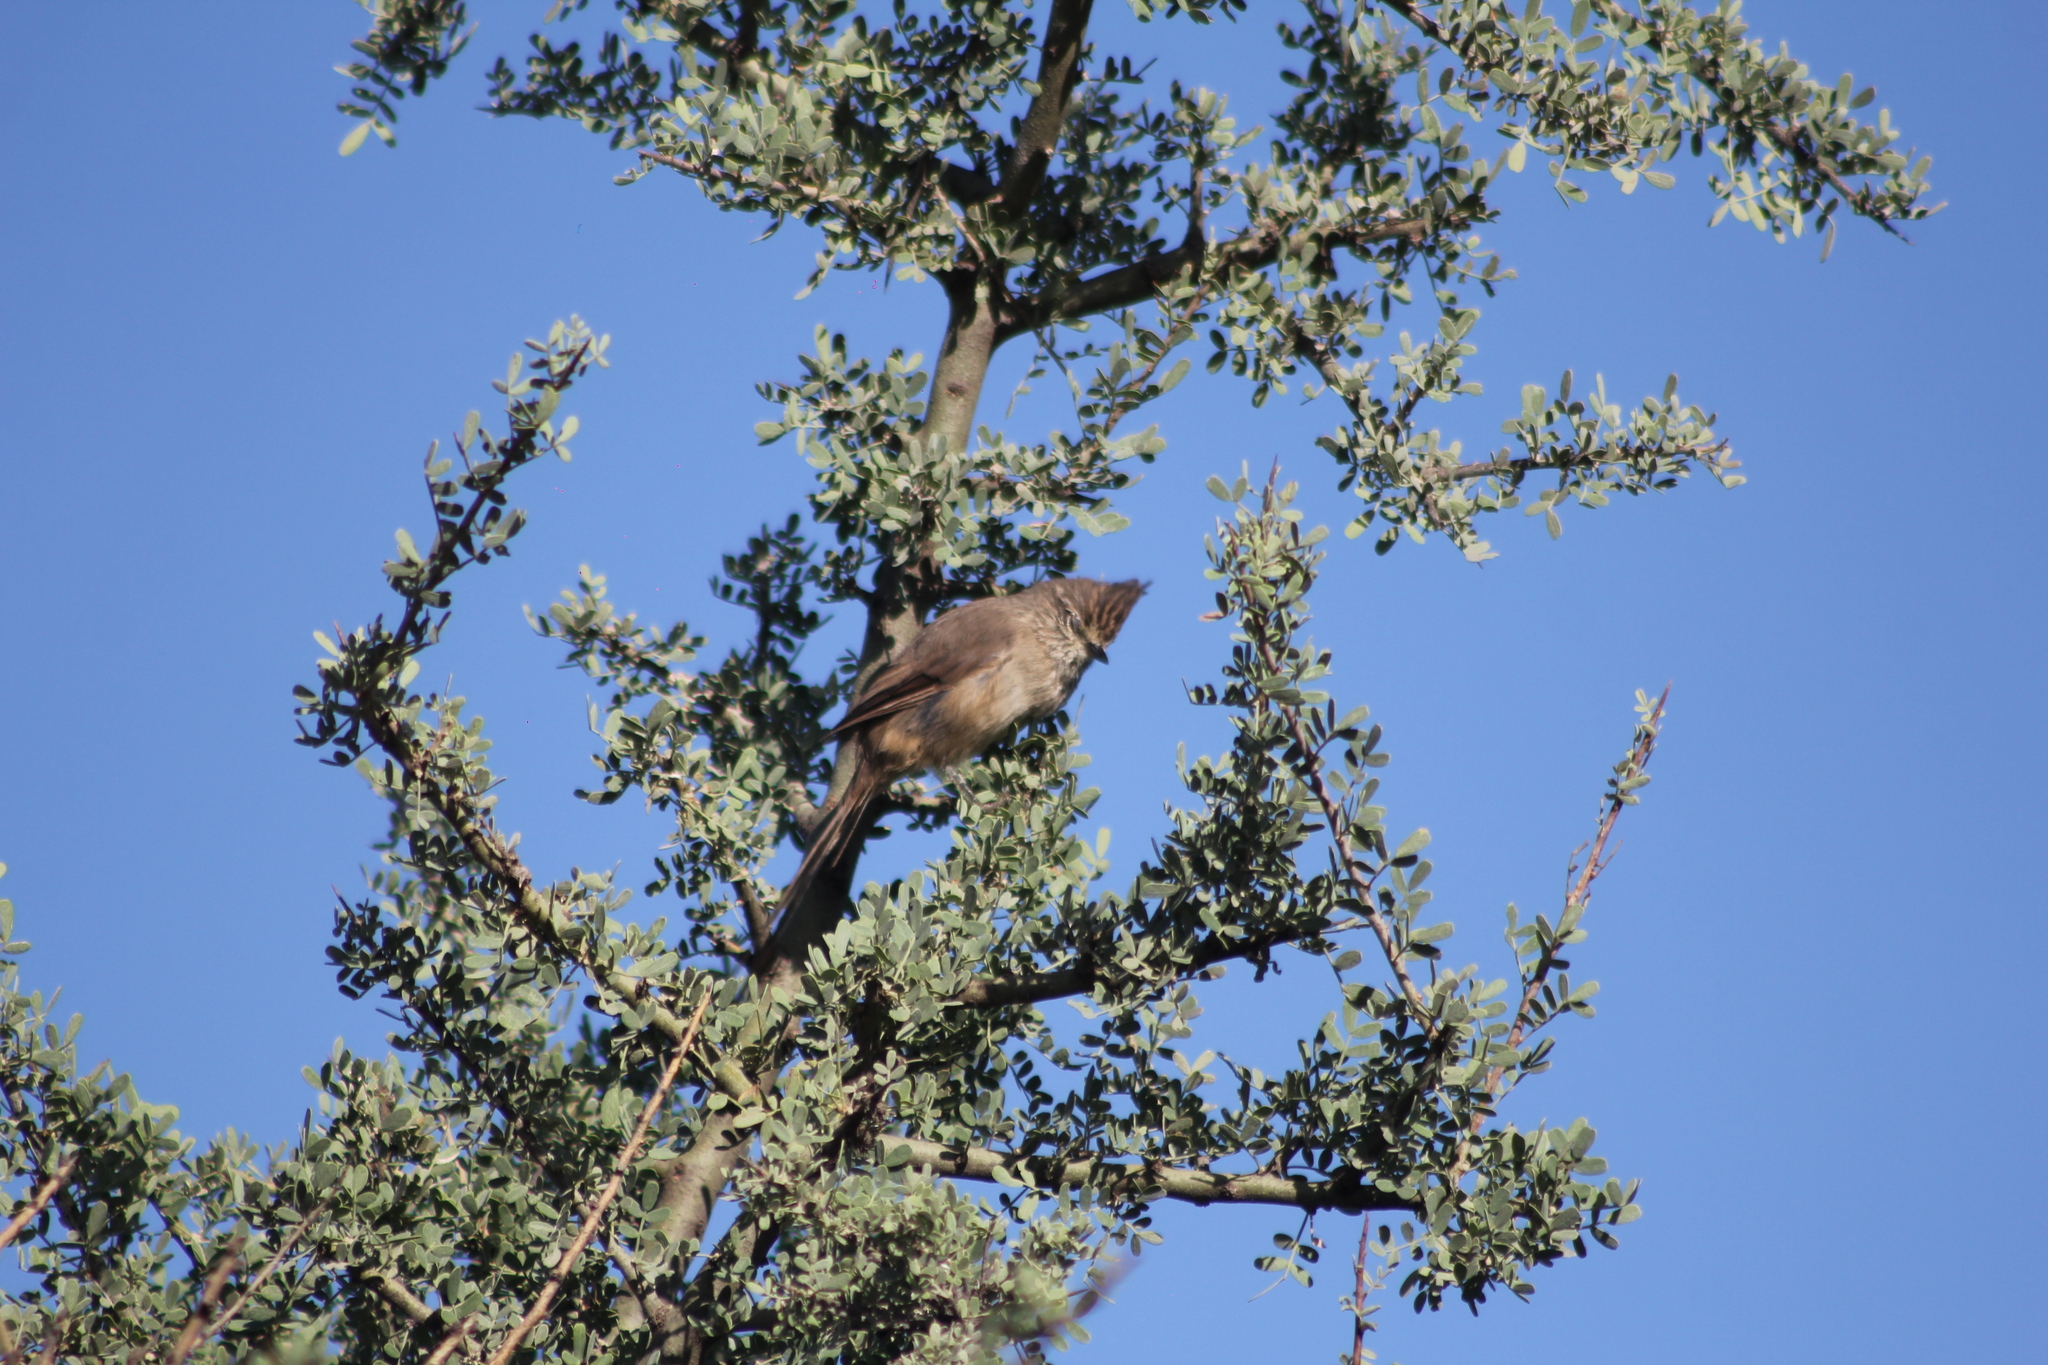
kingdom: Animalia
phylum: Chordata
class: Aves
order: Passeriformes
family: Furnariidae
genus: Leptasthenura
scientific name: Leptasthenura platensis
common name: Tufted tit-spinetail
